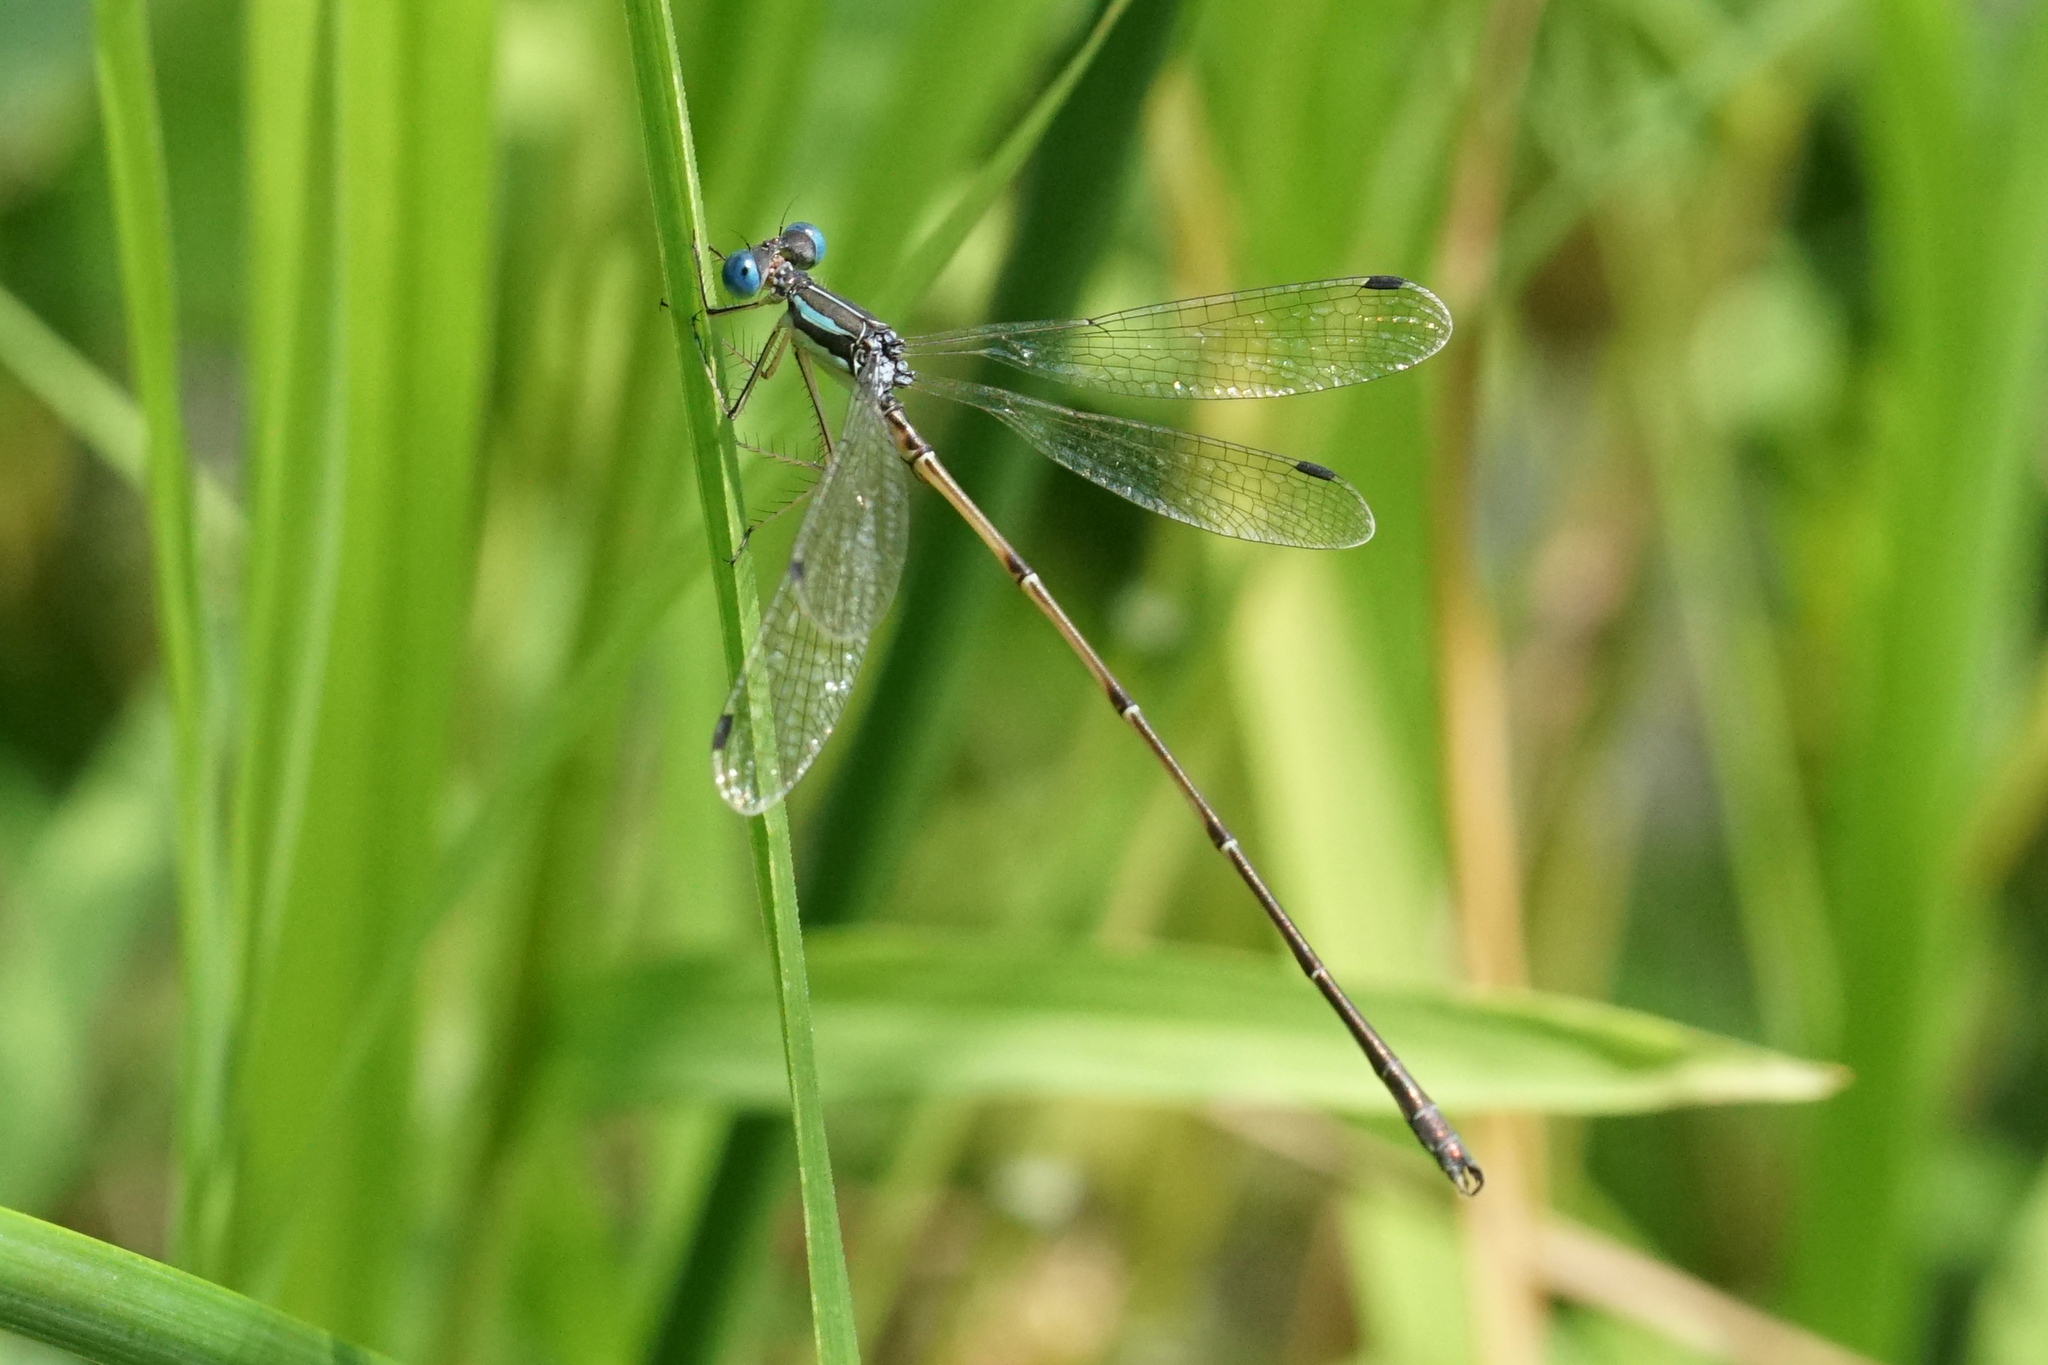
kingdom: Animalia
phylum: Arthropoda
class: Insecta
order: Odonata
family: Lestidae
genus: Lestes
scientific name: Lestes rectangularis
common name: Slender spreadwing
